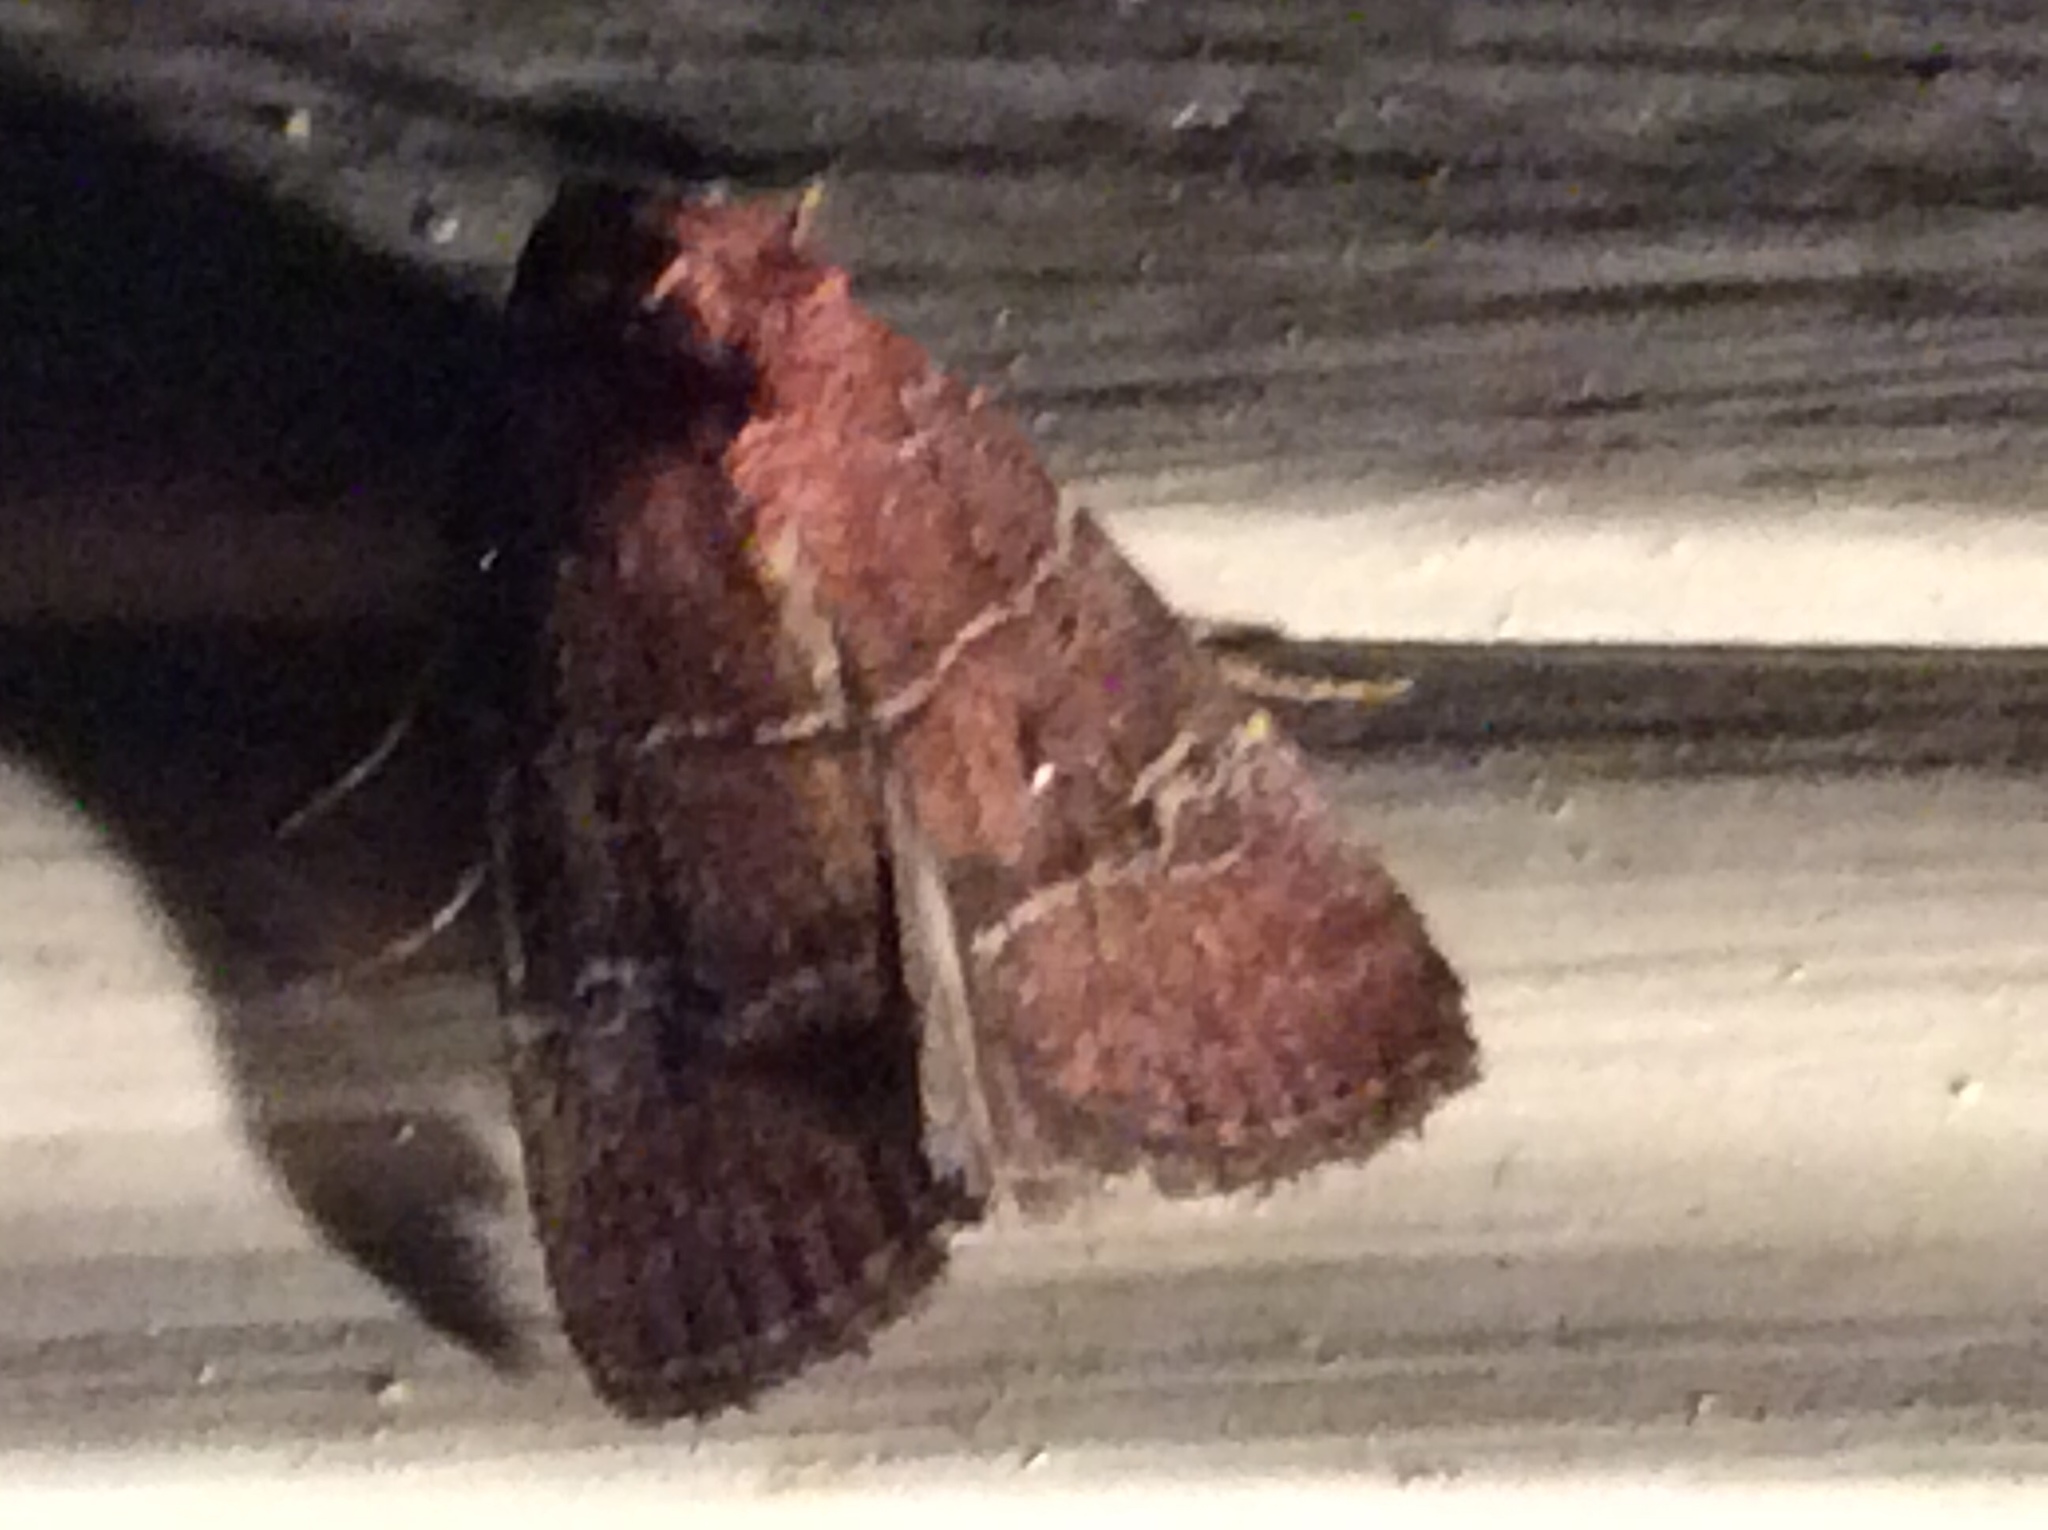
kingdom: Animalia
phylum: Arthropoda
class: Insecta
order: Lepidoptera
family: Noctuidae
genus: Elaphria
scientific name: Elaphria grata
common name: Grateful midget moth
